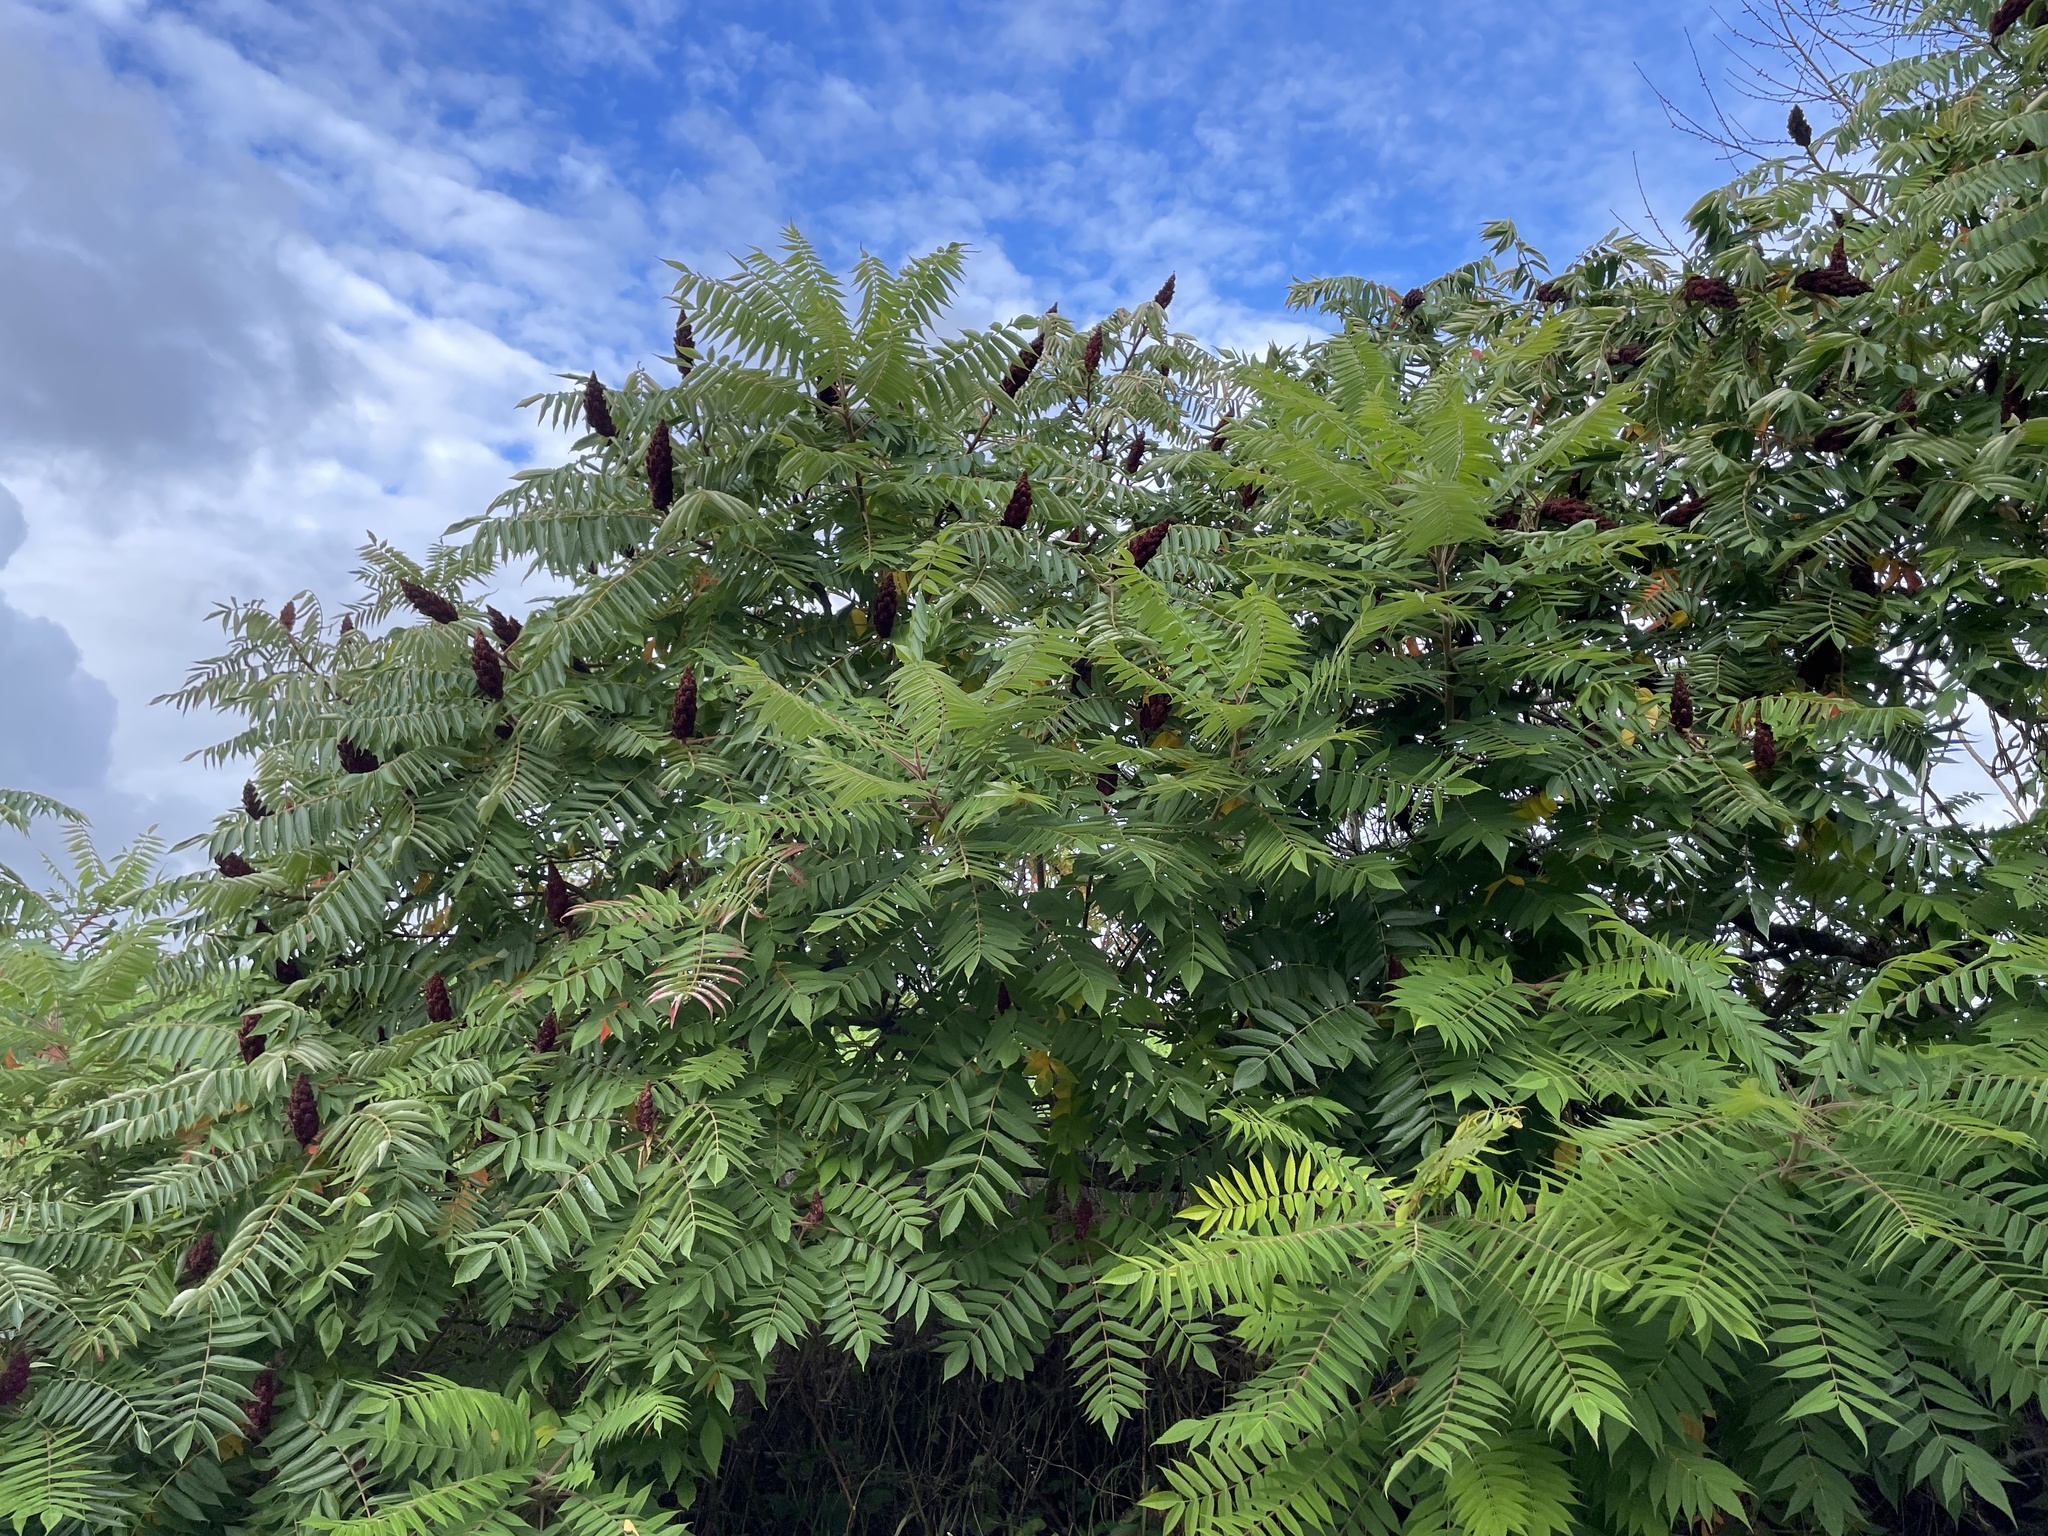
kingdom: Plantae
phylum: Tracheophyta
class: Magnoliopsida
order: Sapindales
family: Anacardiaceae
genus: Rhus
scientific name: Rhus typhina
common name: Staghorn sumac
